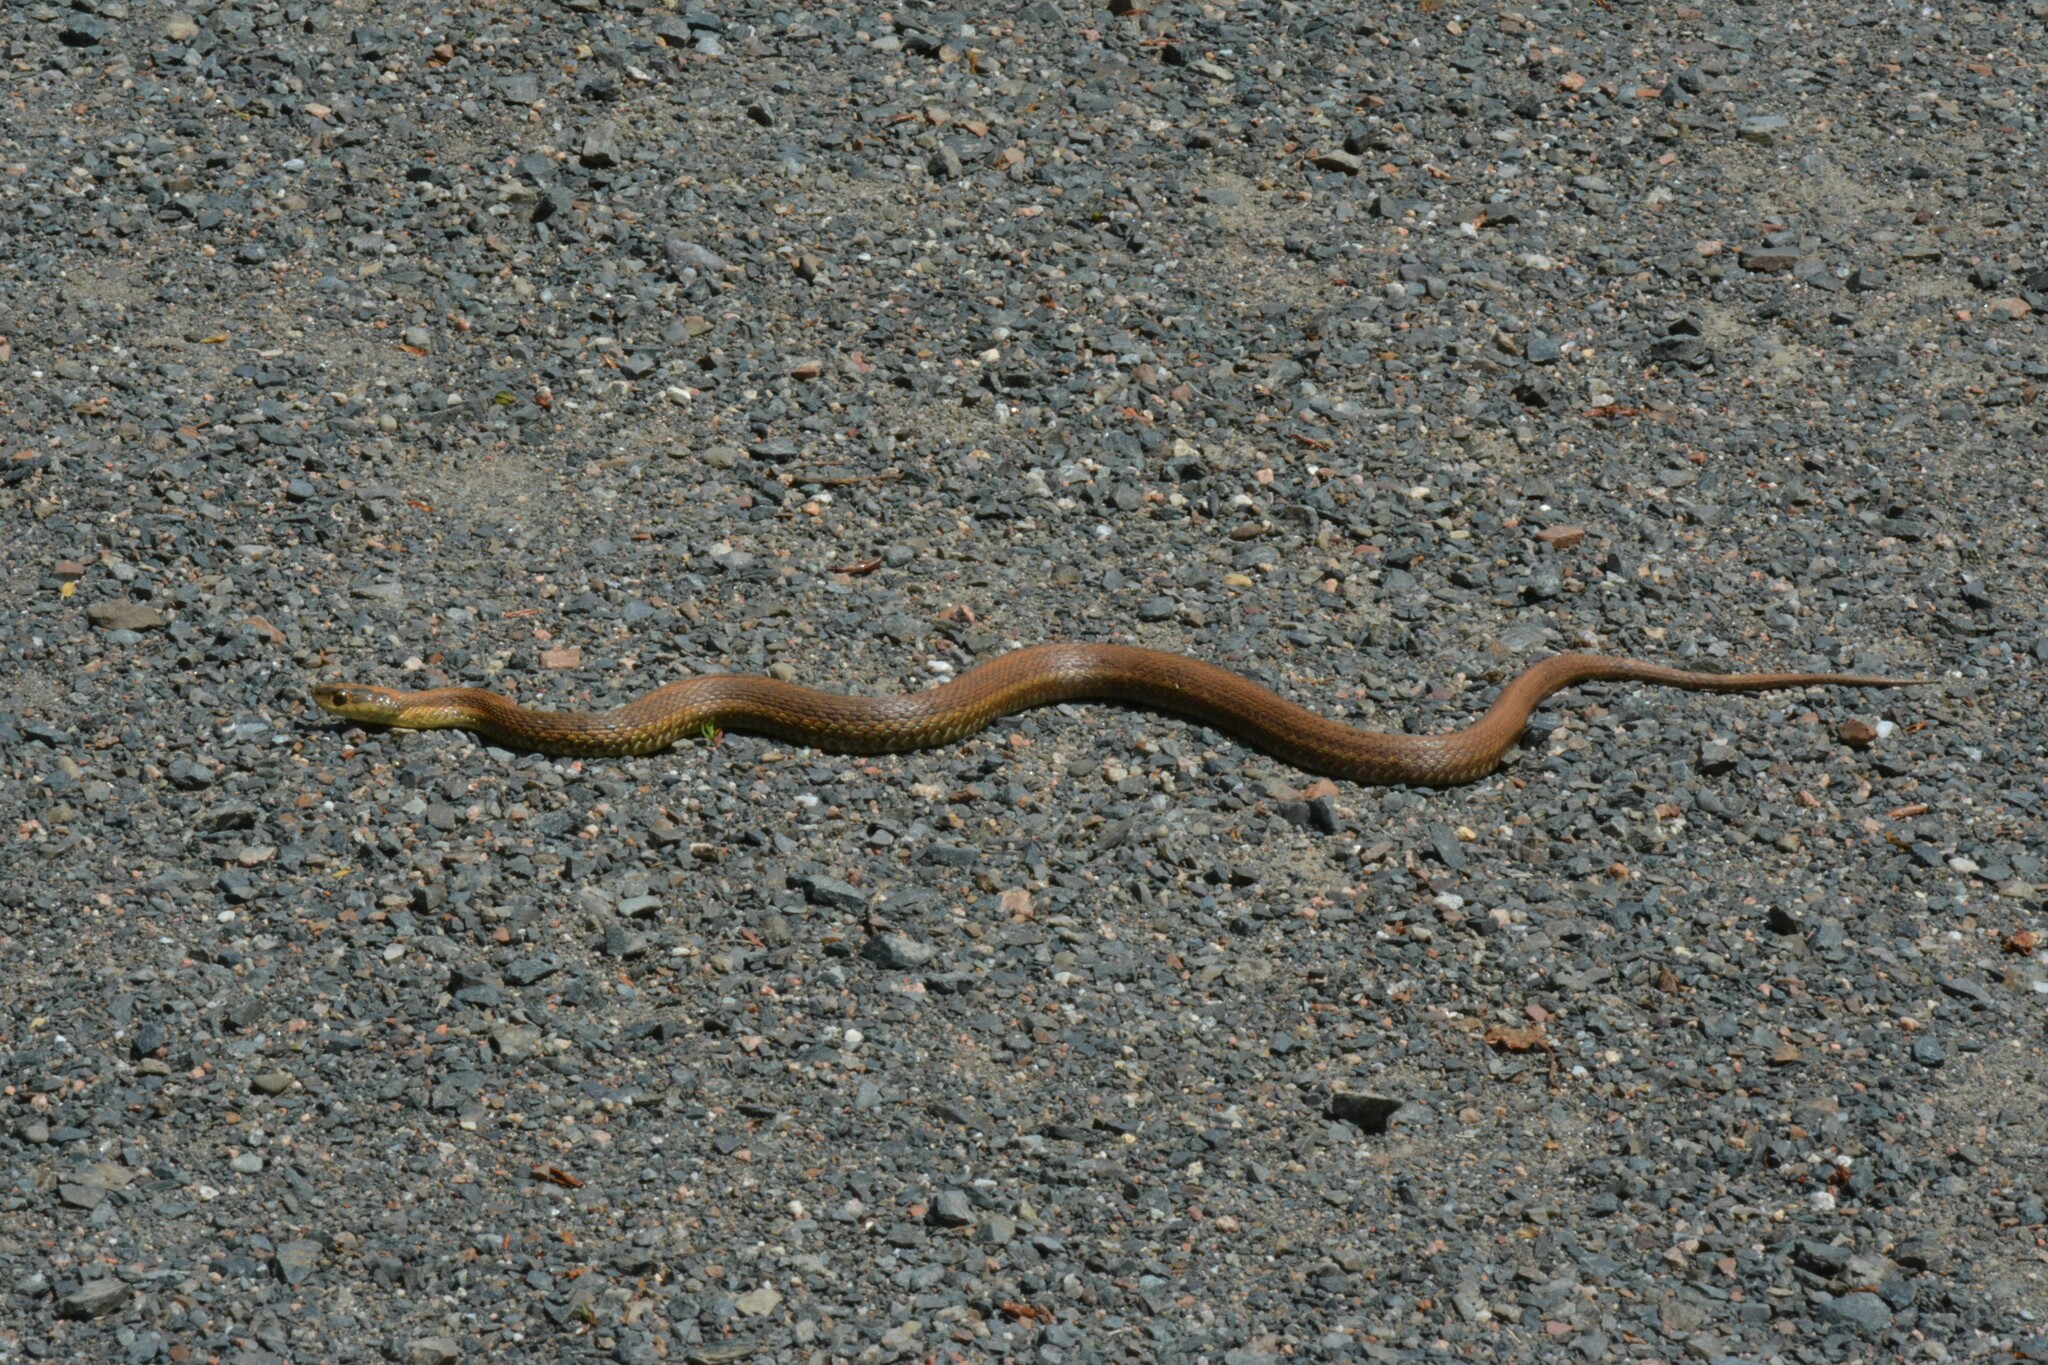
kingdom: Animalia
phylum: Chordata
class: Squamata
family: Colubridae
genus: Thamnophis
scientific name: Thamnophis sirtalis
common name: Common garter snake
